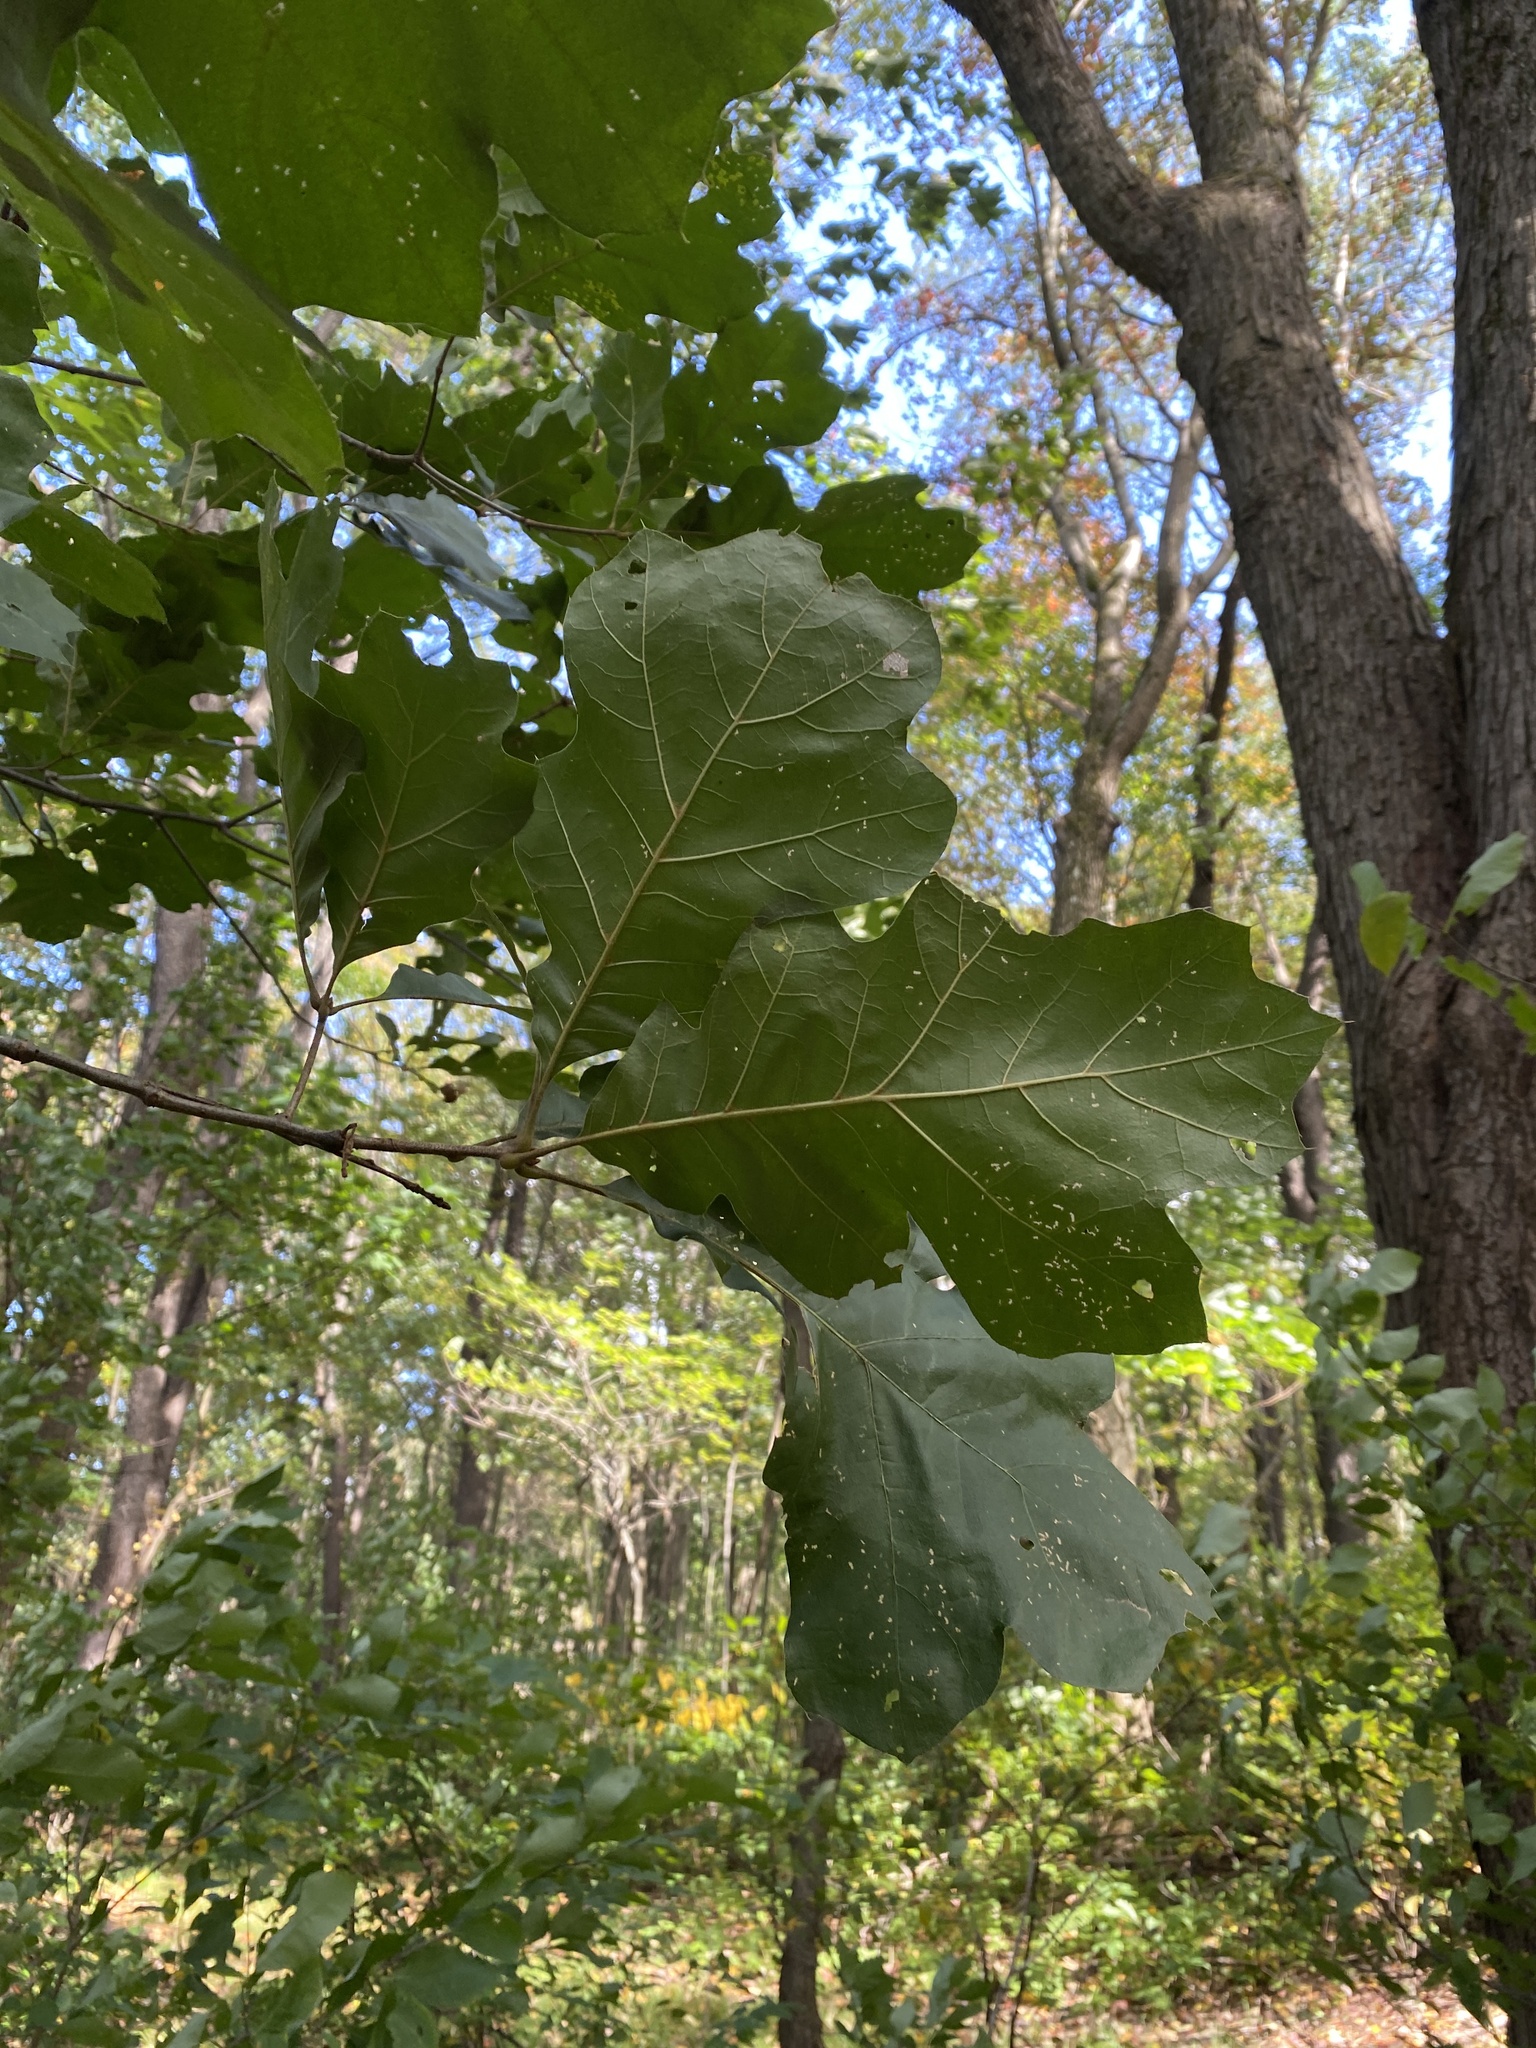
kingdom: Plantae
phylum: Tracheophyta
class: Magnoliopsida
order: Fagales
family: Fagaceae
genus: Quercus
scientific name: Quercus velutina
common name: Black oak
